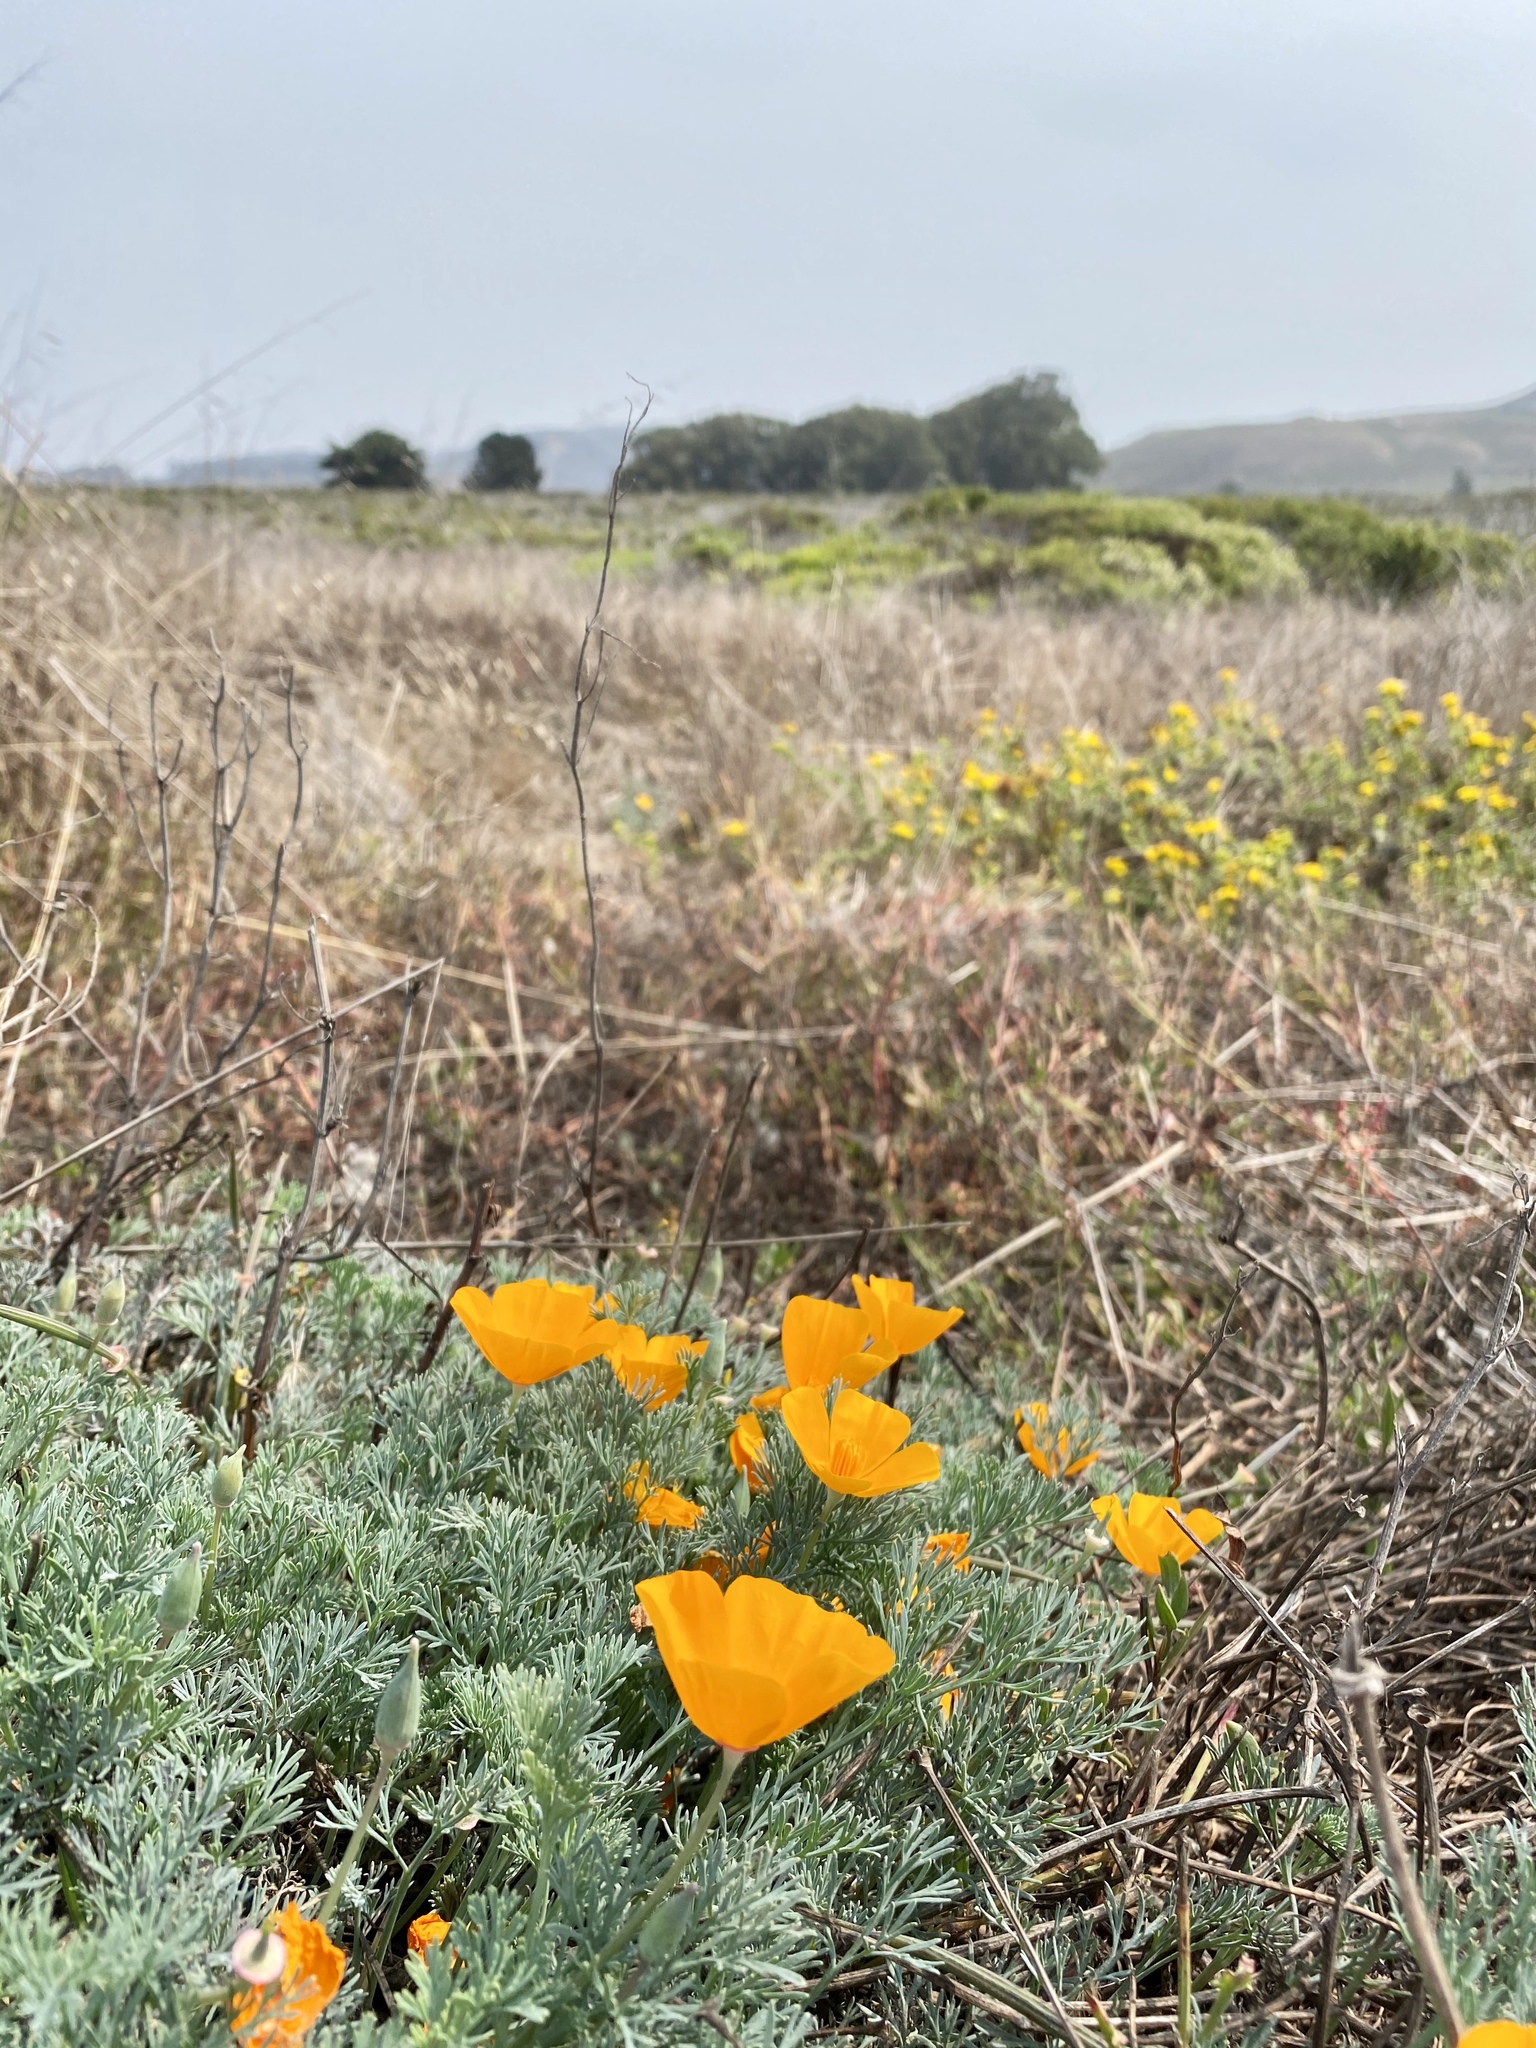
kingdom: Plantae
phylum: Tracheophyta
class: Magnoliopsida
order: Ranunculales
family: Papaveraceae
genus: Eschscholzia
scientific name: Eschscholzia californica
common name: California poppy
